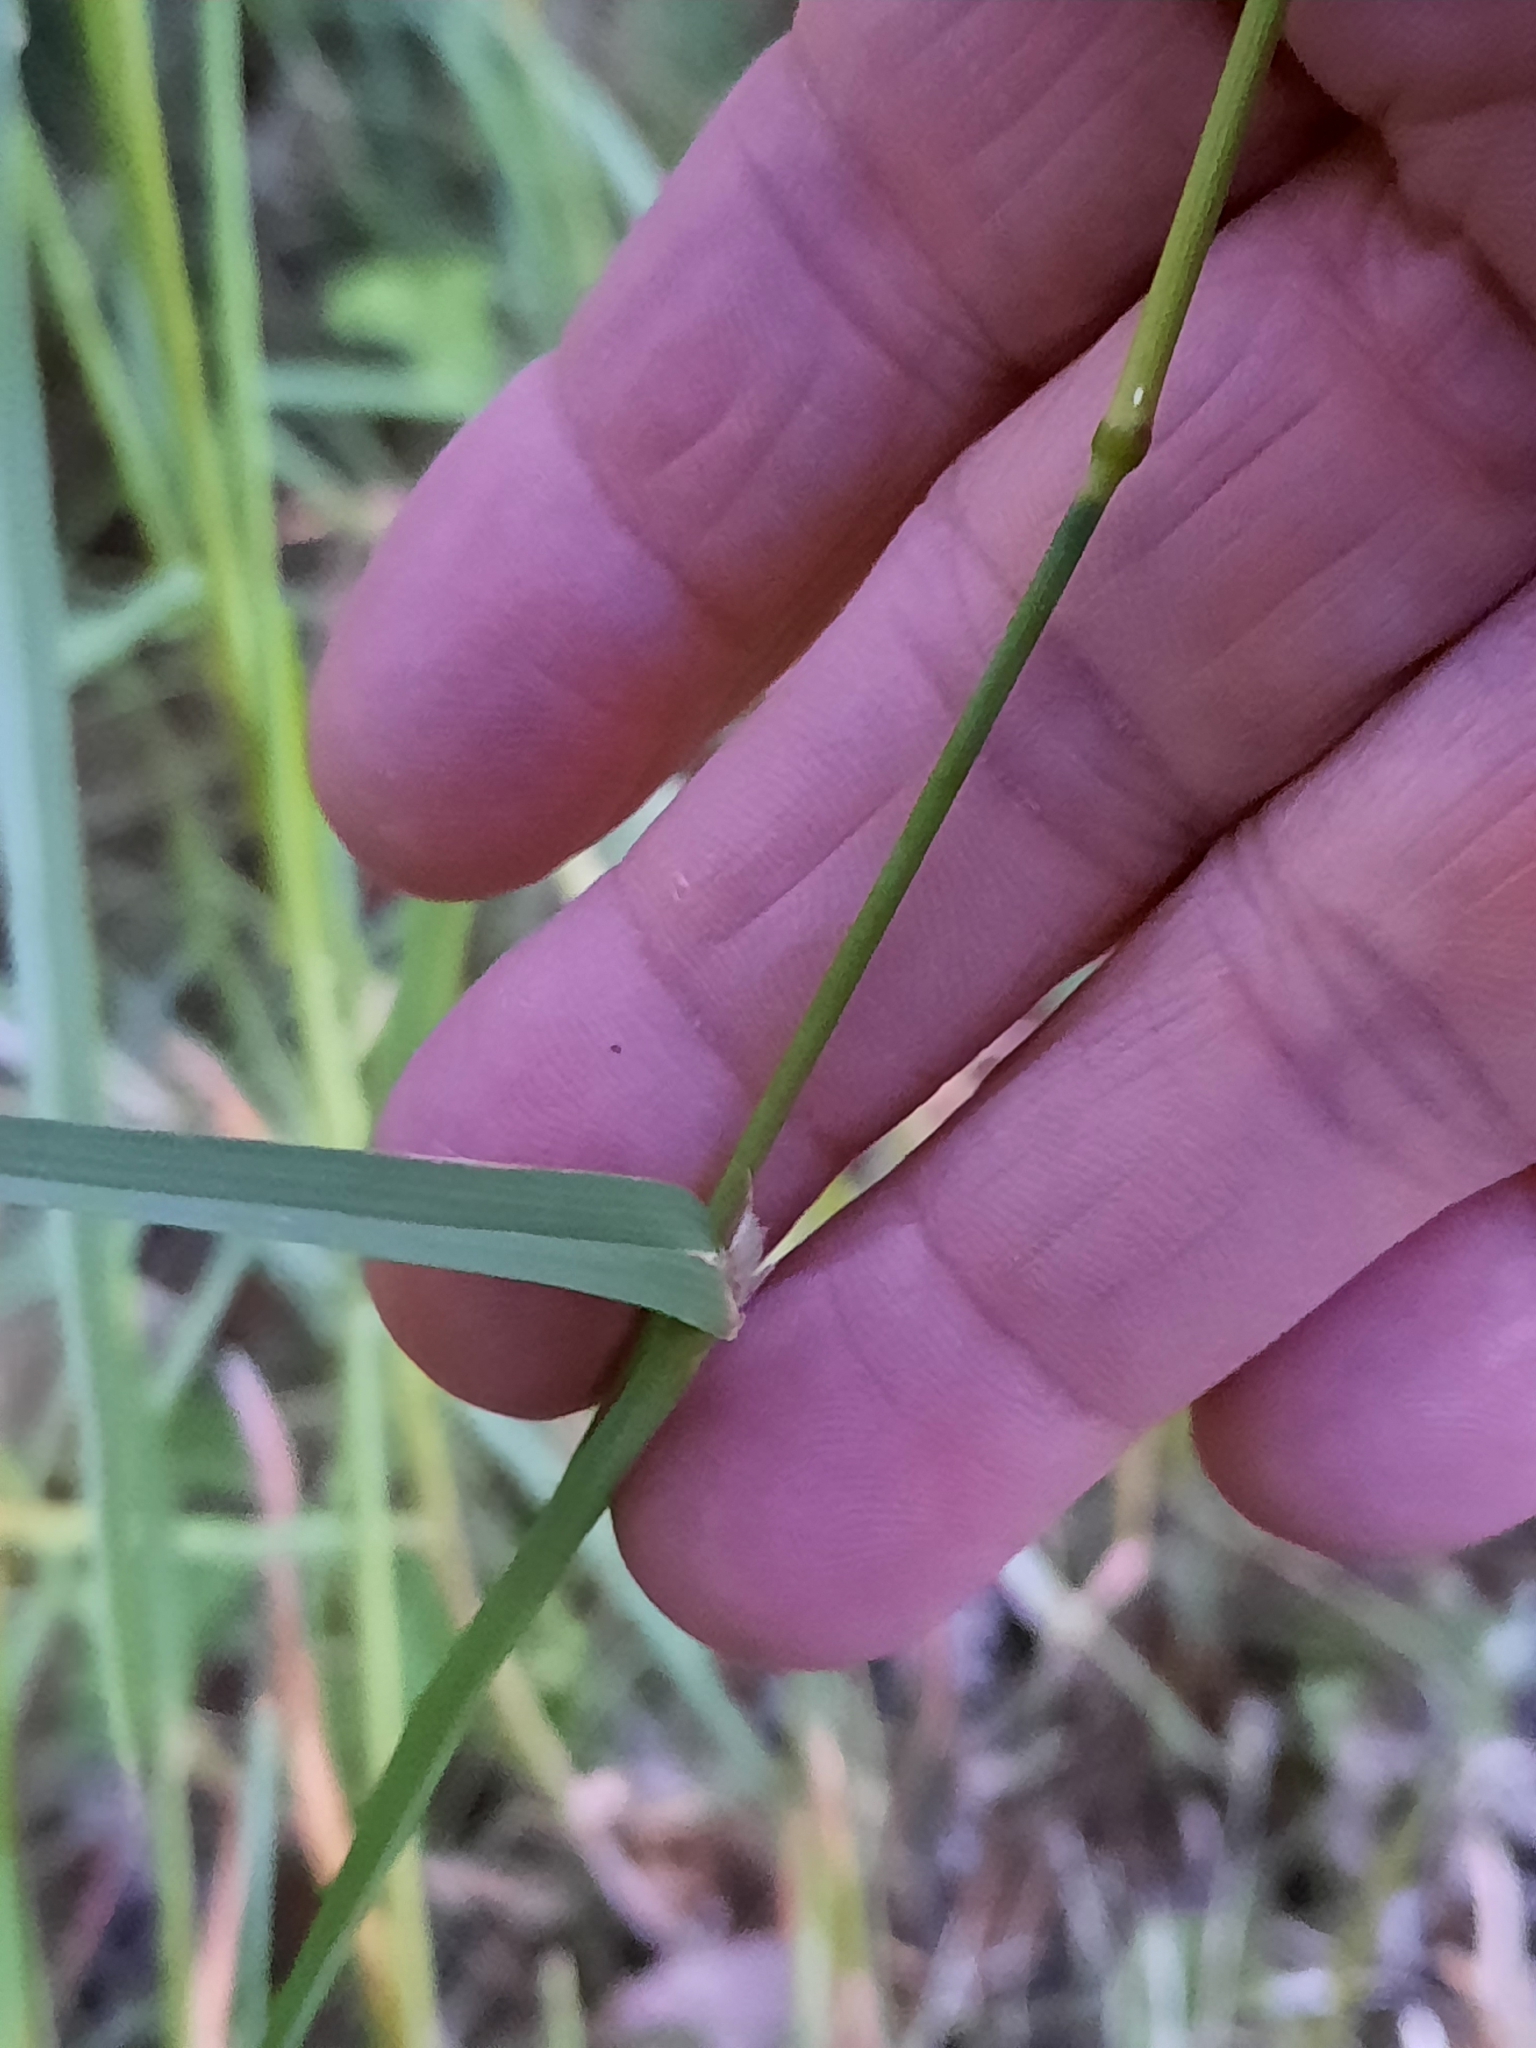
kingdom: Plantae
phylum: Tracheophyta
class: Liliopsida
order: Poales
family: Poaceae
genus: Dactylis
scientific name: Dactylis glomerata
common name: Orchardgrass
